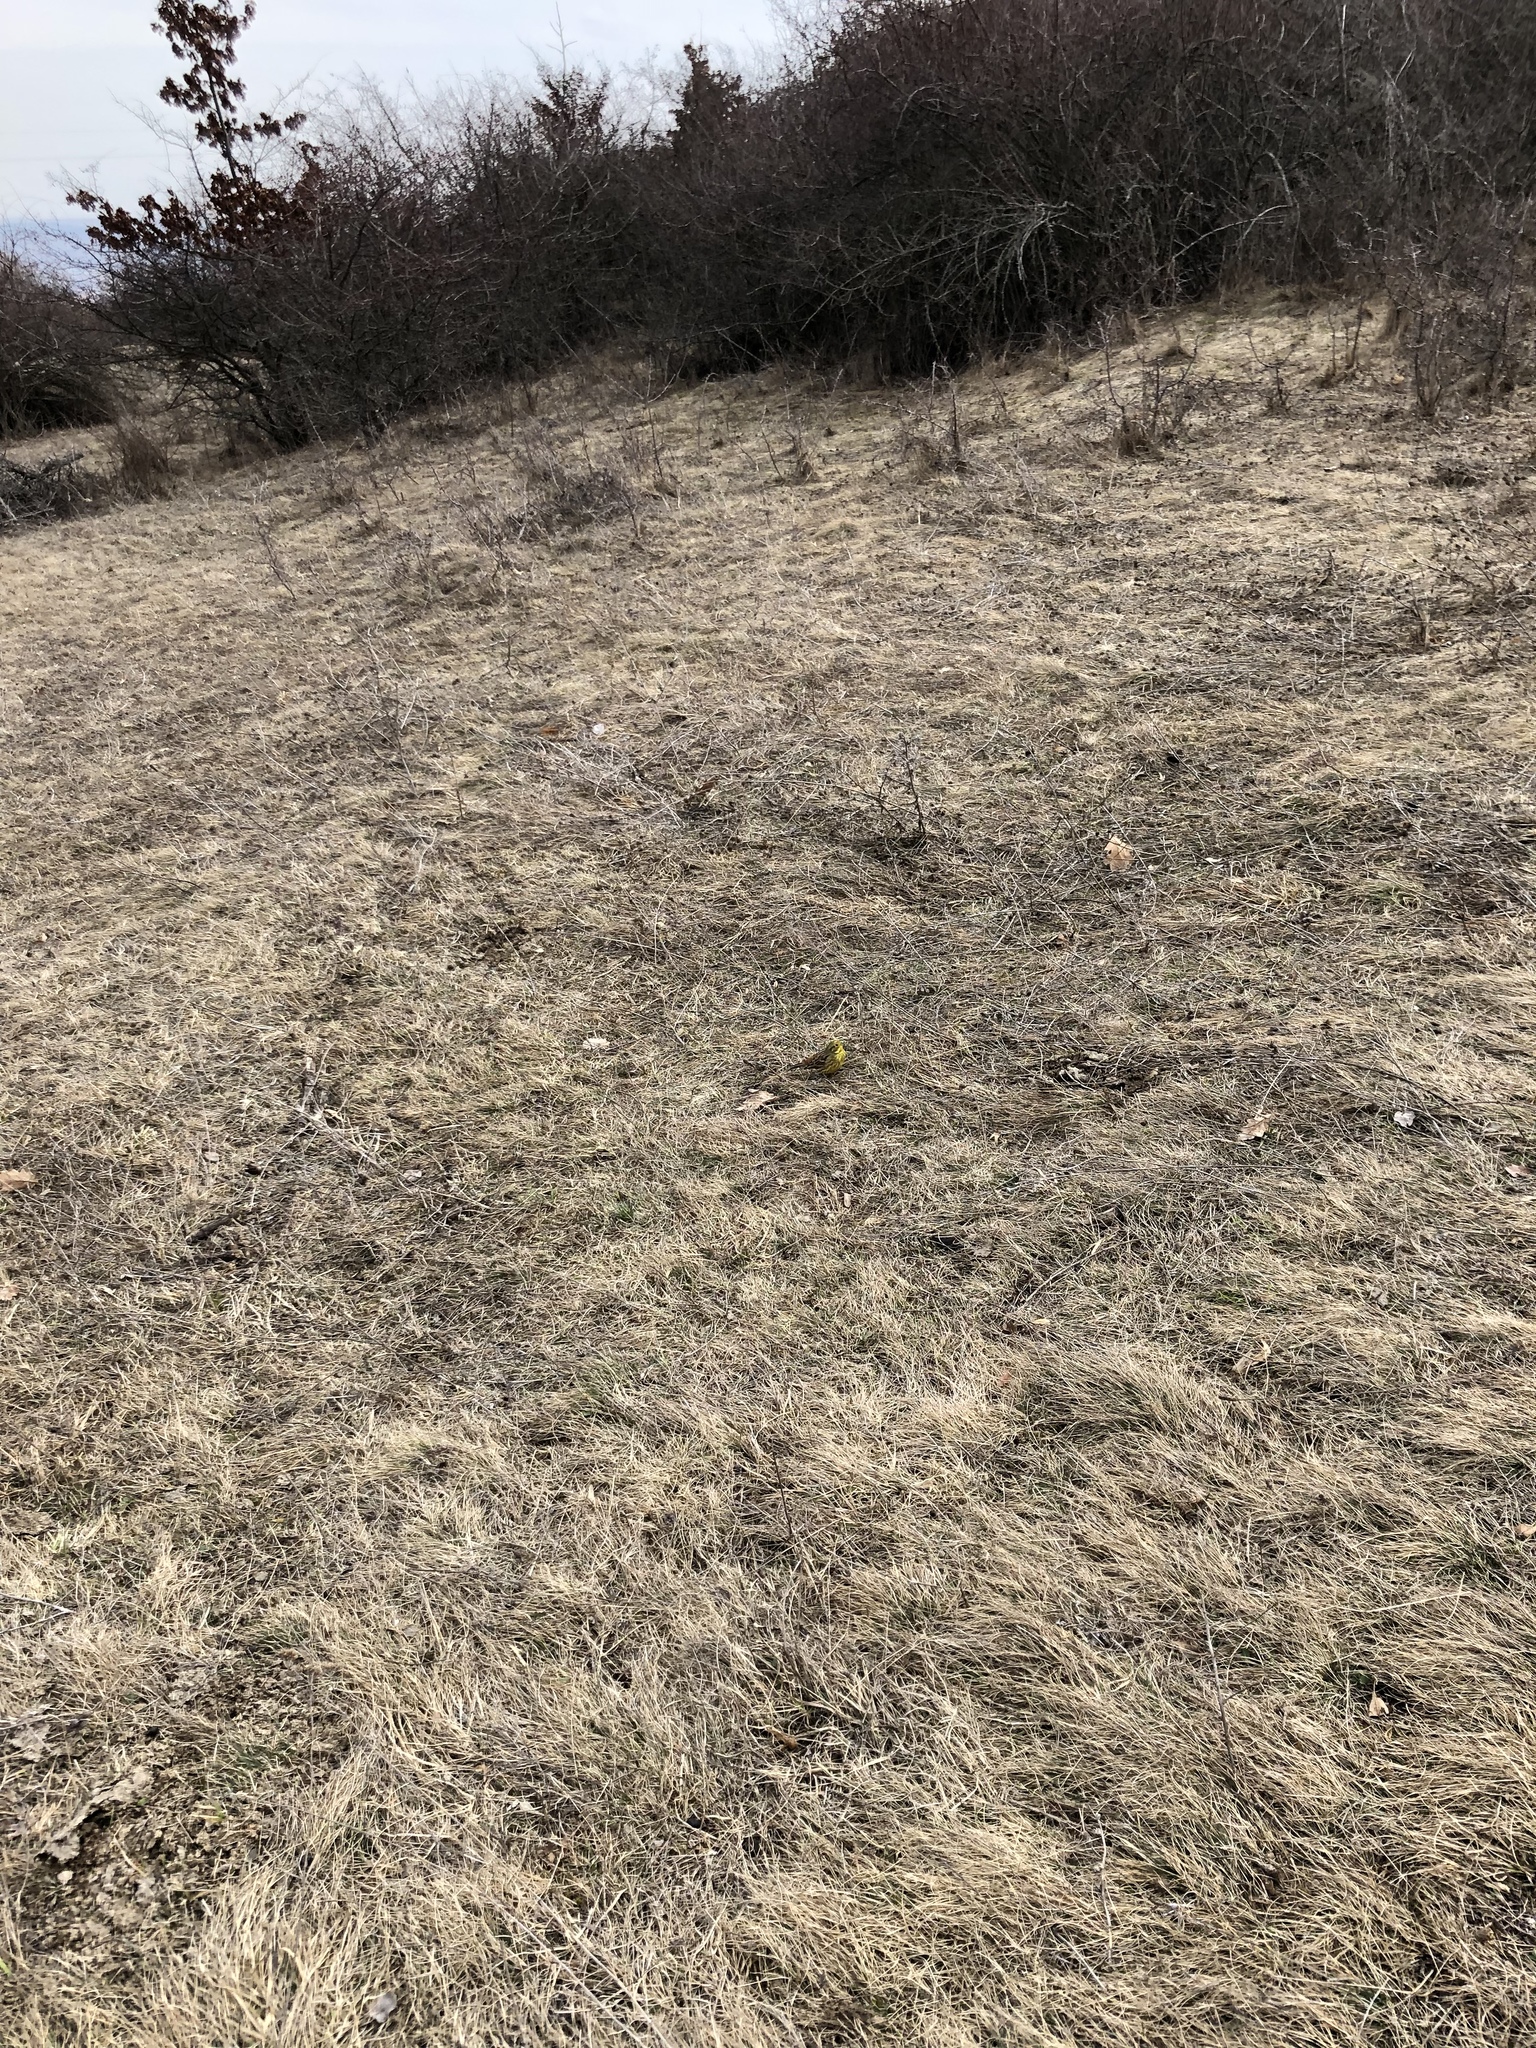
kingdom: Animalia
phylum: Chordata
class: Aves
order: Passeriformes
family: Emberizidae
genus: Emberiza
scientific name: Emberiza citrinella
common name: Yellowhammer
